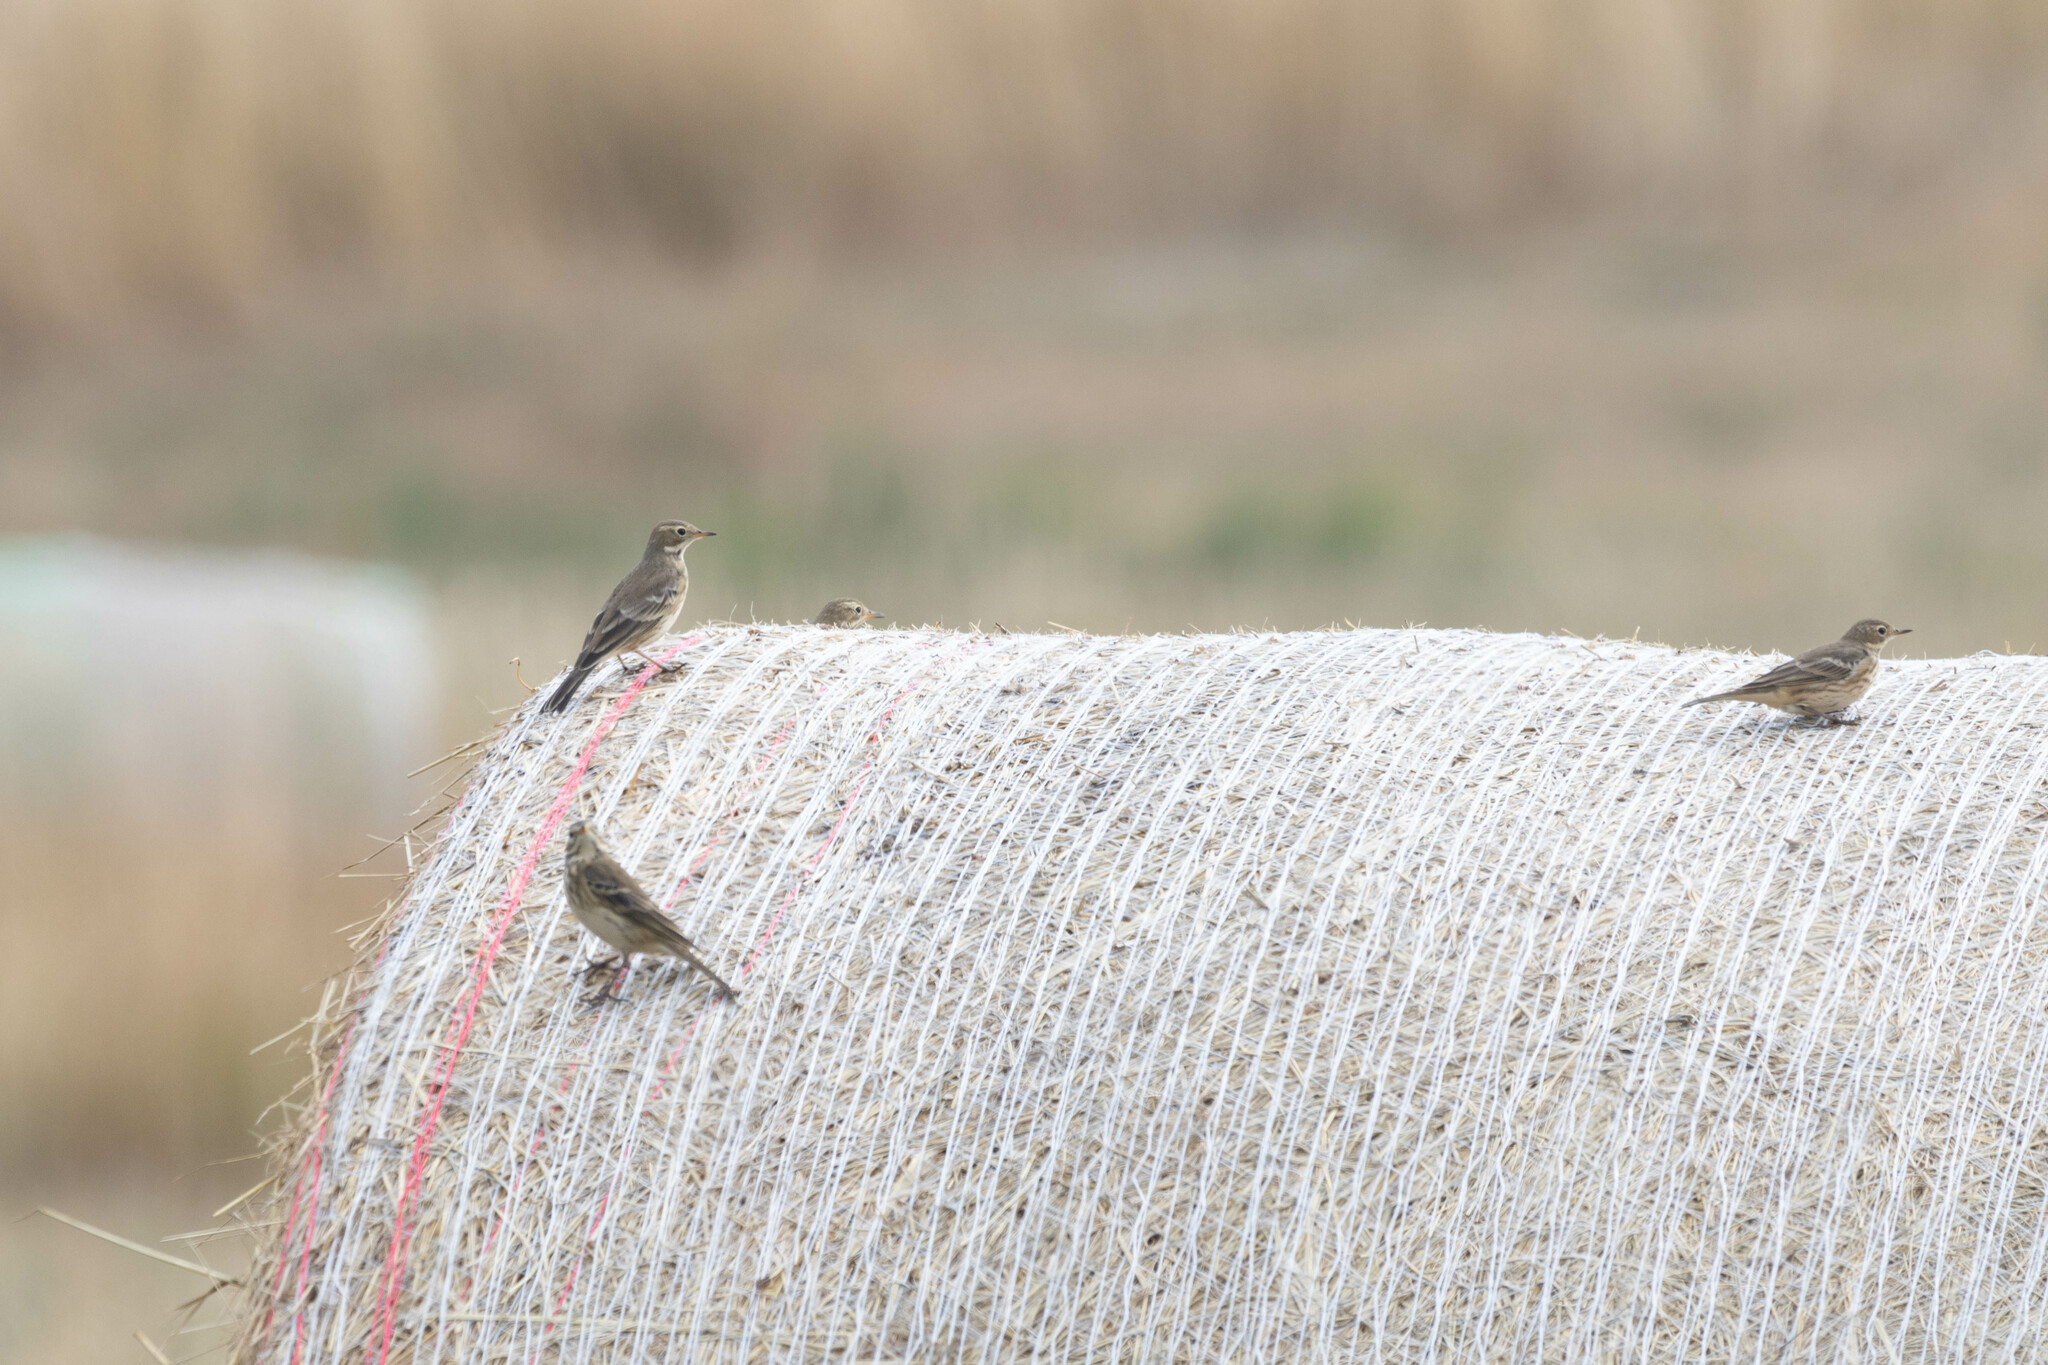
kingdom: Animalia
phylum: Chordata
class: Aves
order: Passeriformes
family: Motacillidae
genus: Anthus
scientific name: Anthus rubescens
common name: Buff-bellied pipit
